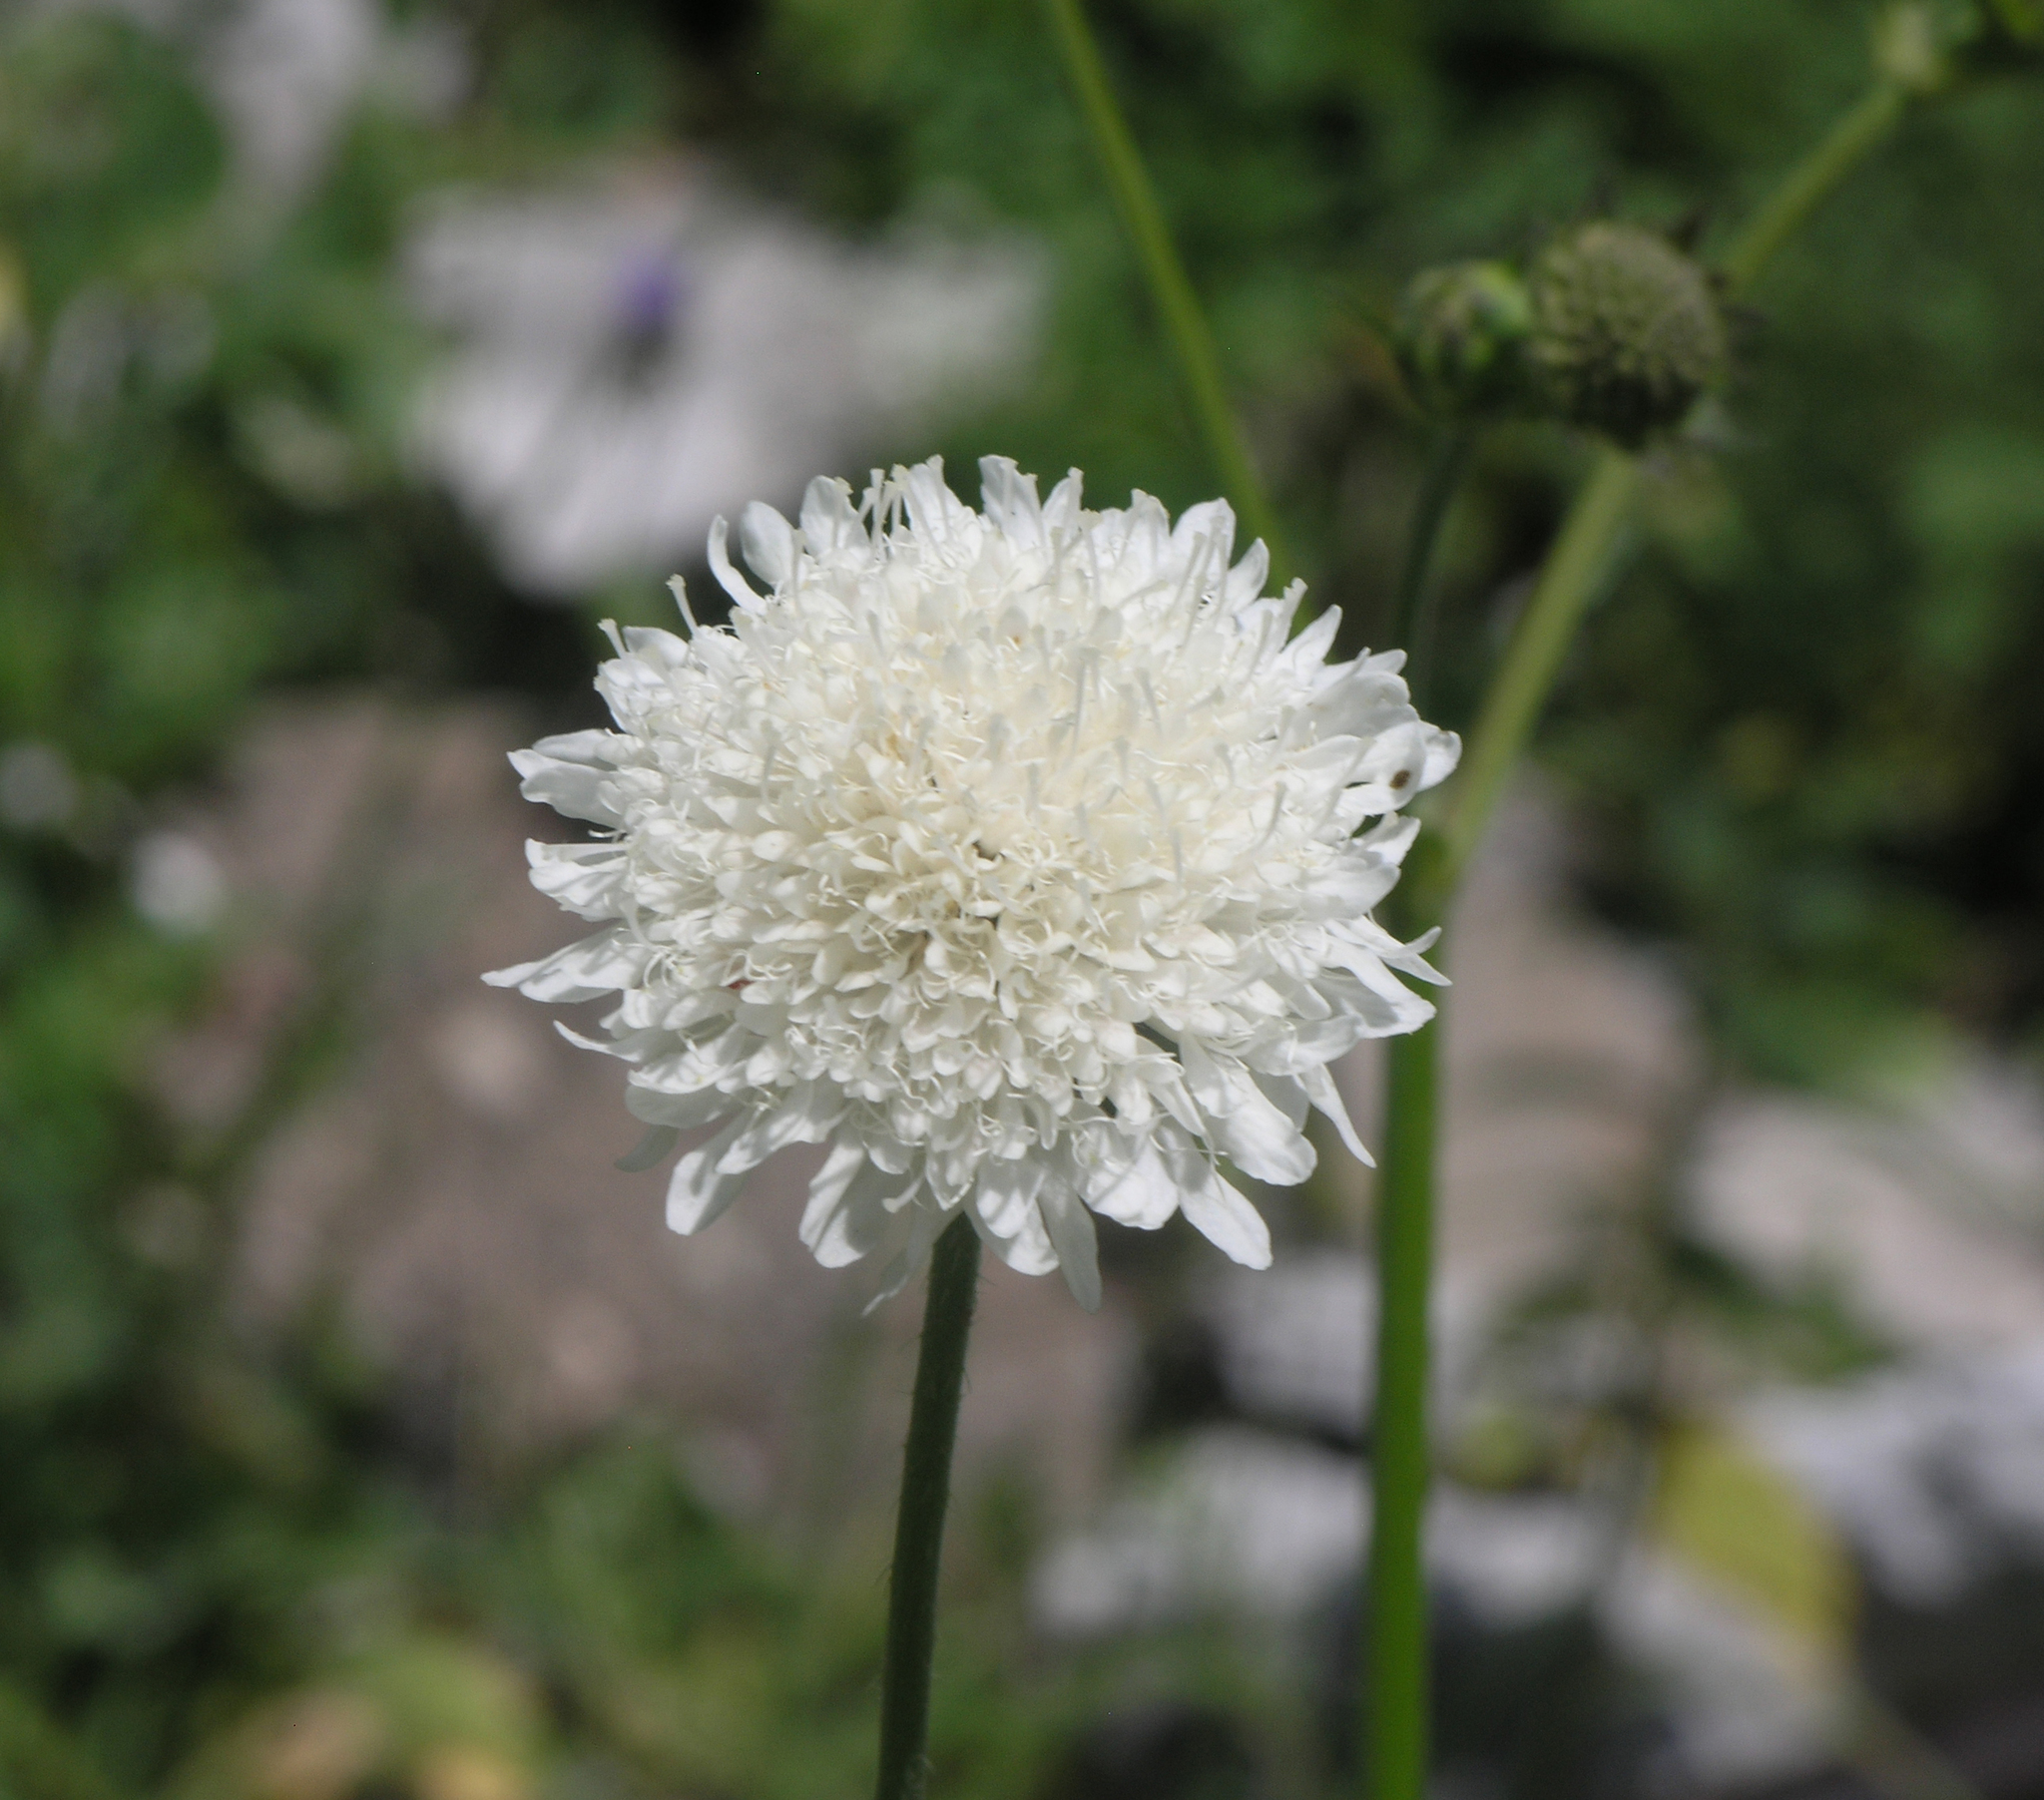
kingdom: Plantae
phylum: Tracheophyta
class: Magnoliopsida
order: Dipsacales
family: Caprifoliaceae
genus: Scabiosa
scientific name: Scabiosa ochroleuca
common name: Cream pincushions
